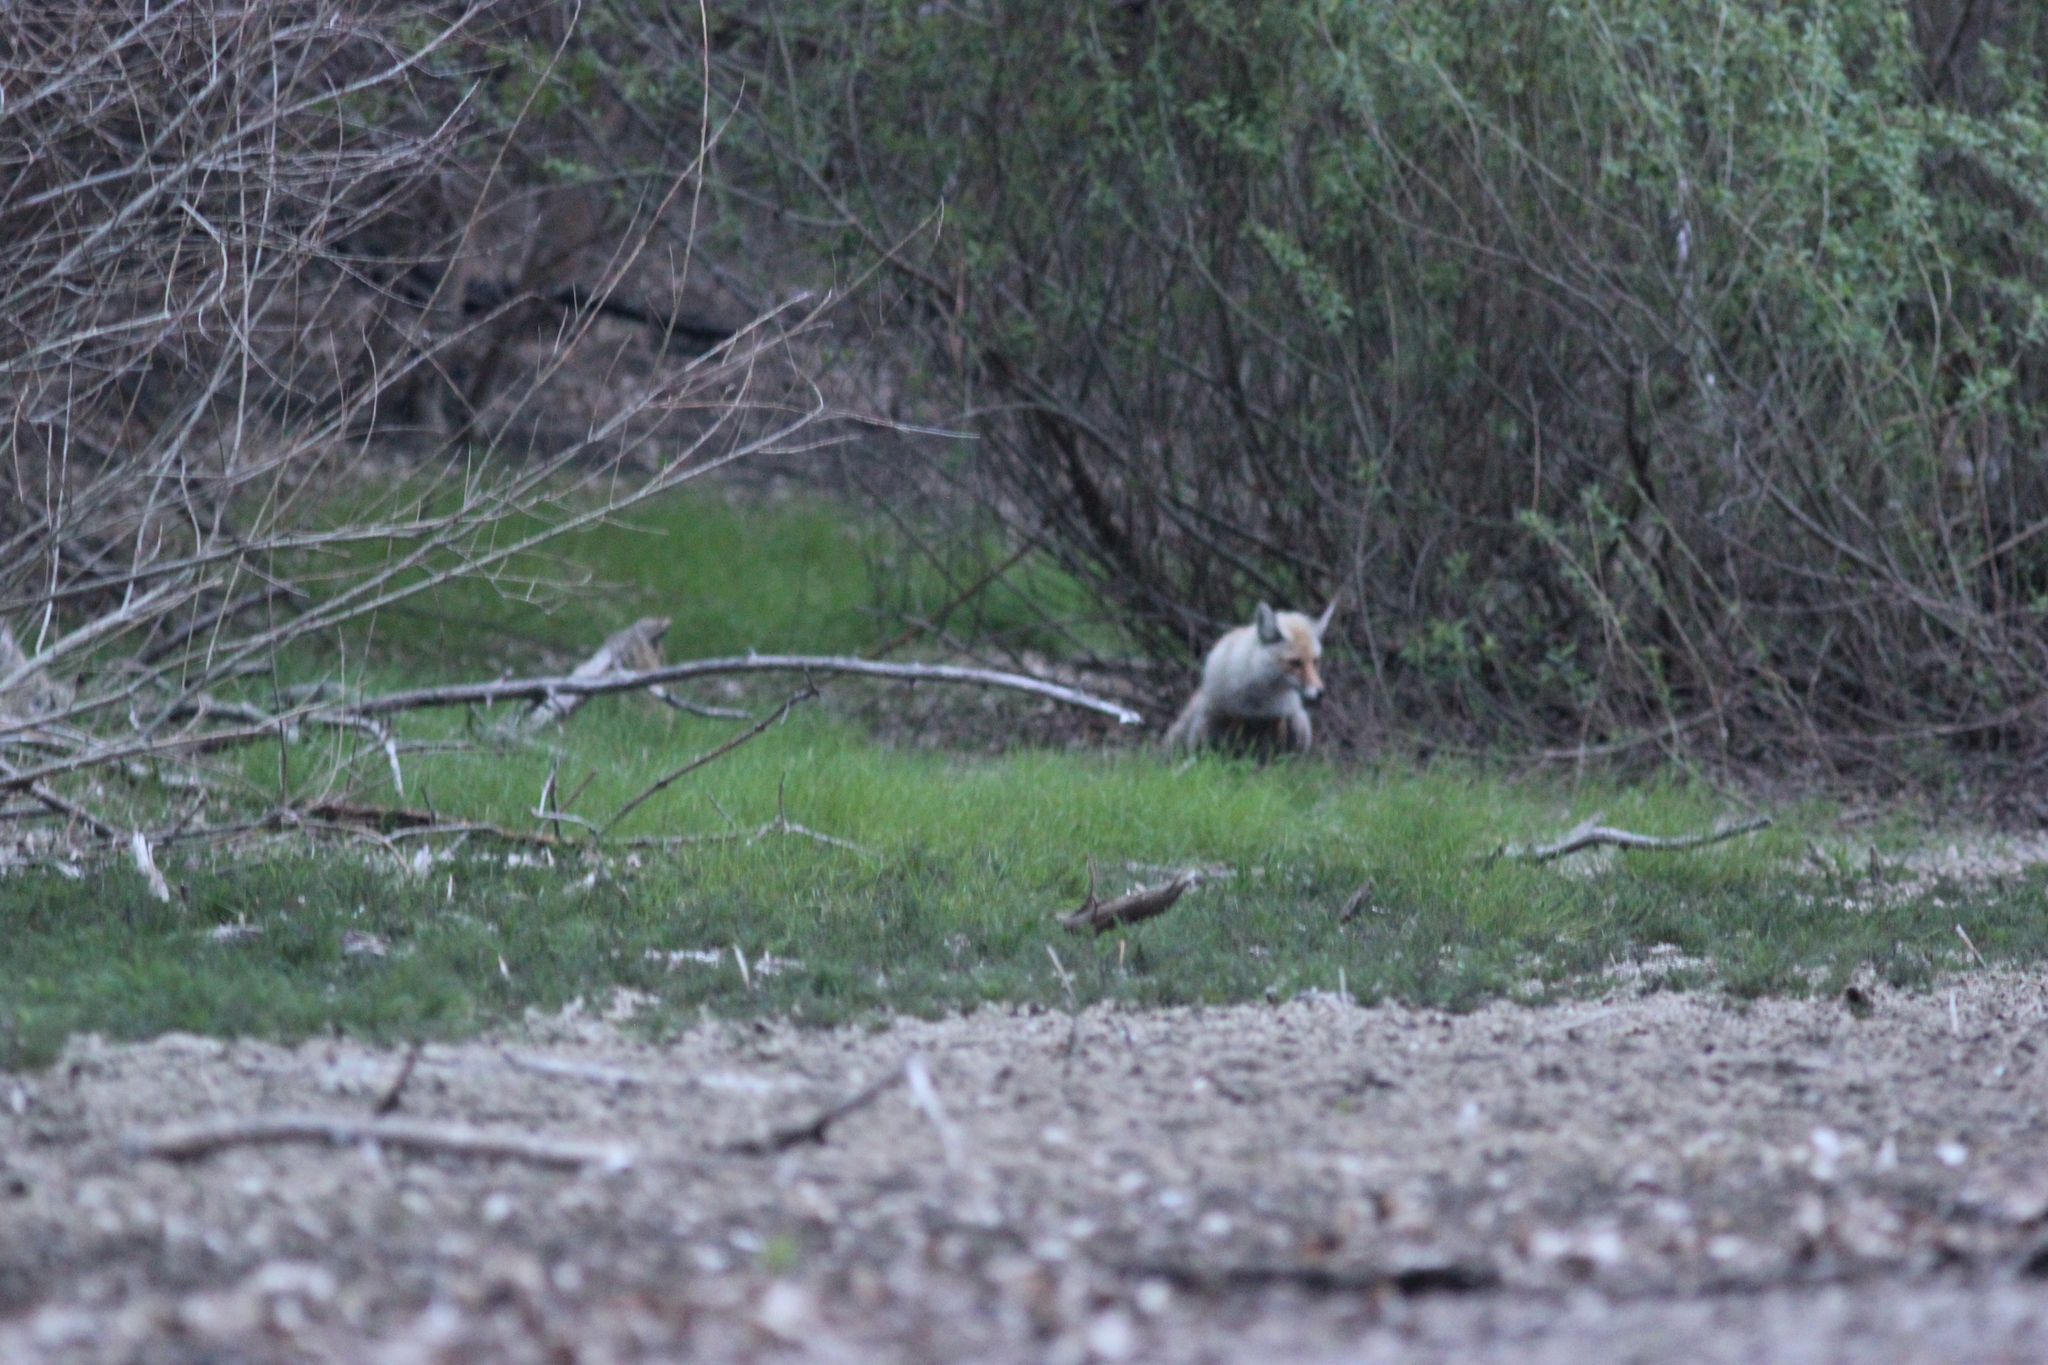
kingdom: Animalia
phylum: Chordata
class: Mammalia
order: Carnivora
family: Canidae
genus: Vulpes
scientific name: Vulpes vulpes
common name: Red fox
